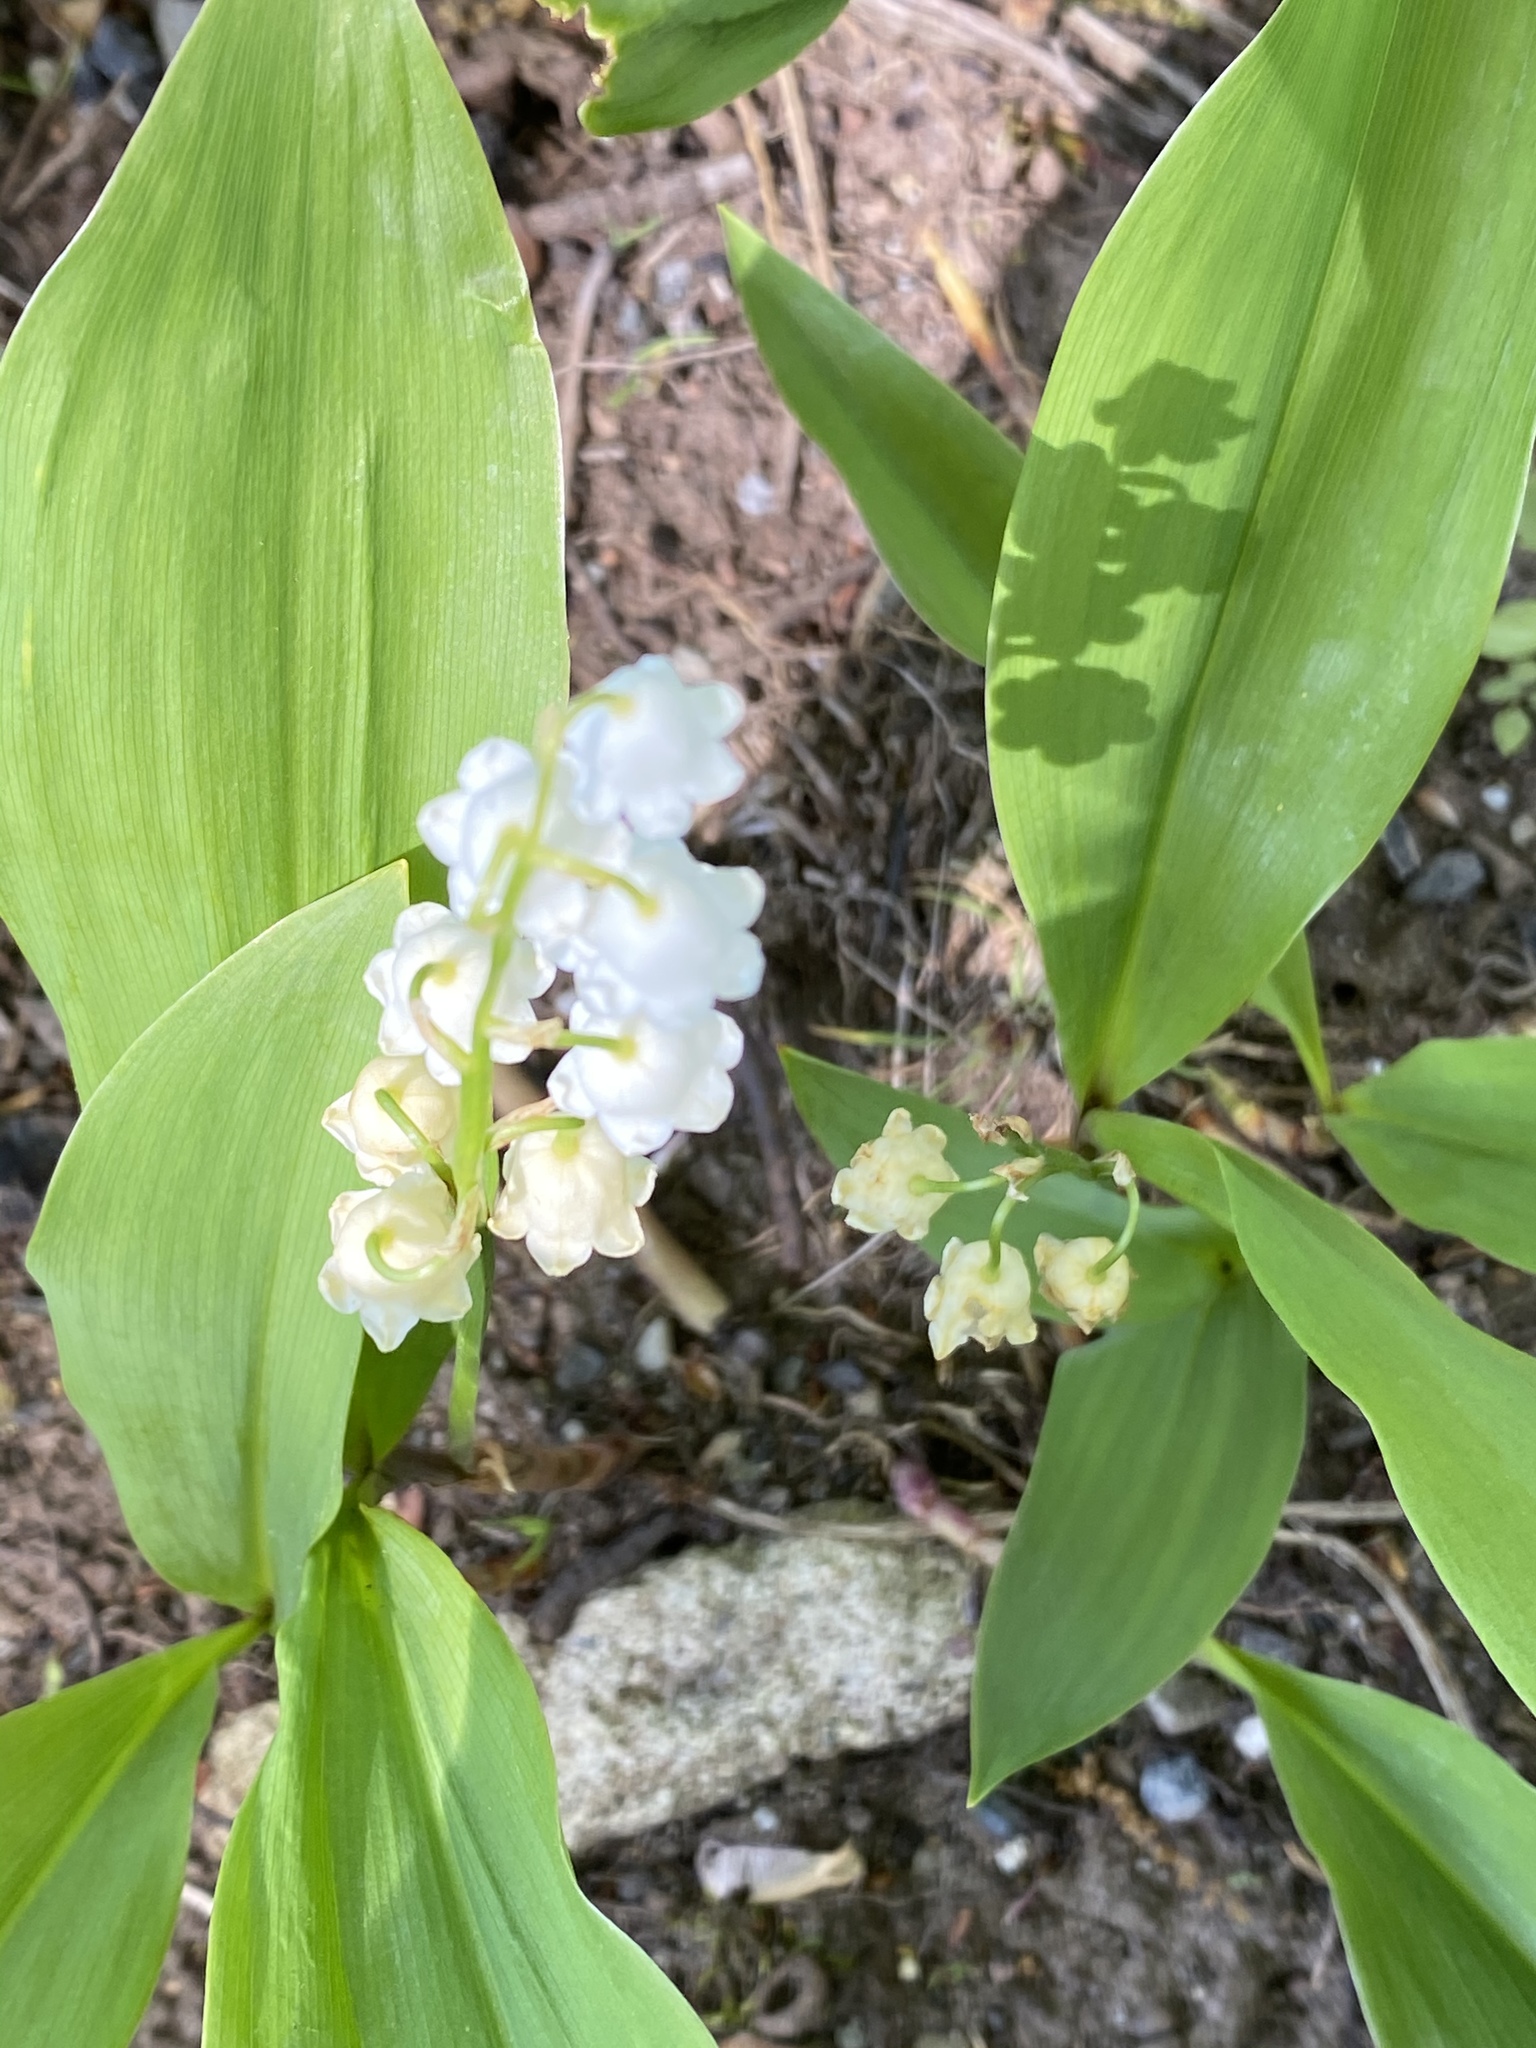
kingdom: Plantae
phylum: Tracheophyta
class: Liliopsida
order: Asparagales
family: Asparagaceae
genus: Convallaria
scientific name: Convallaria majalis
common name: Lily-of-the-valley
